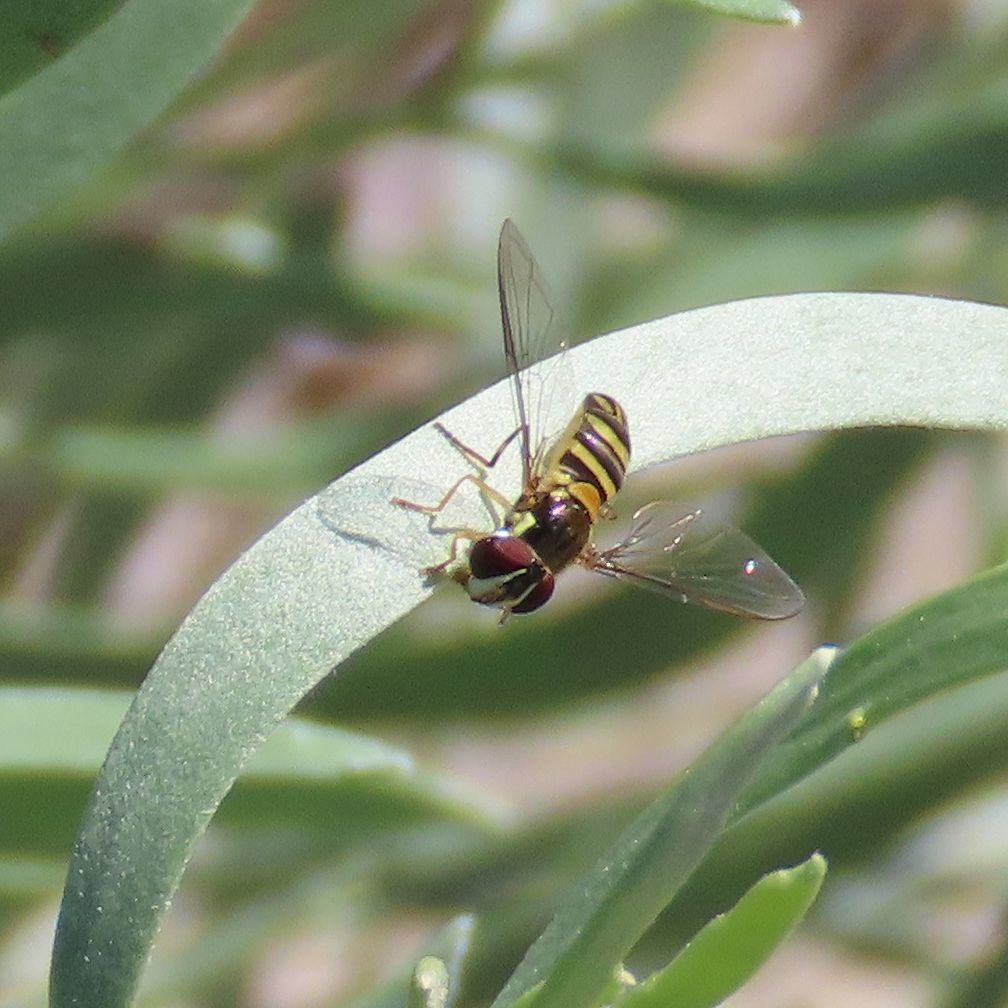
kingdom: Animalia
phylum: Arthropoda
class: Insecta
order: Diptera
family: Syrphidae
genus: Allograpta
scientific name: Allograpta obliqua
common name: Common oblique syrphid
